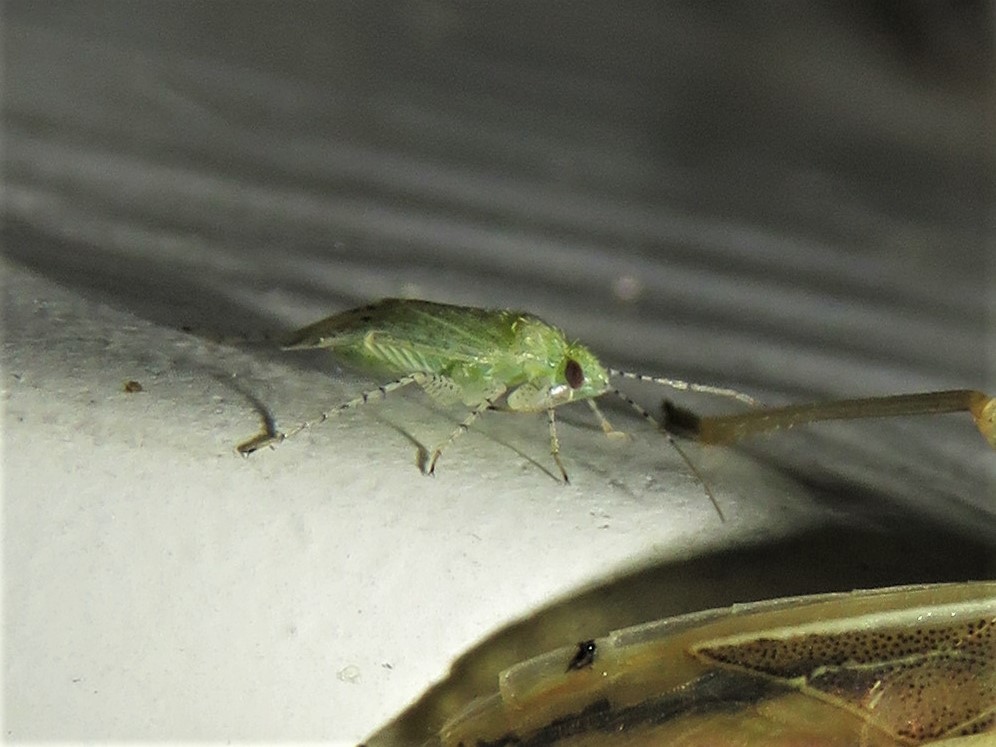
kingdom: Animalia
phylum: Arthropoda
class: Insecta
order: Hemiptera
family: Miridae
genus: Pseudatomoscelis
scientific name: Pseudatomoscelis seriatus
